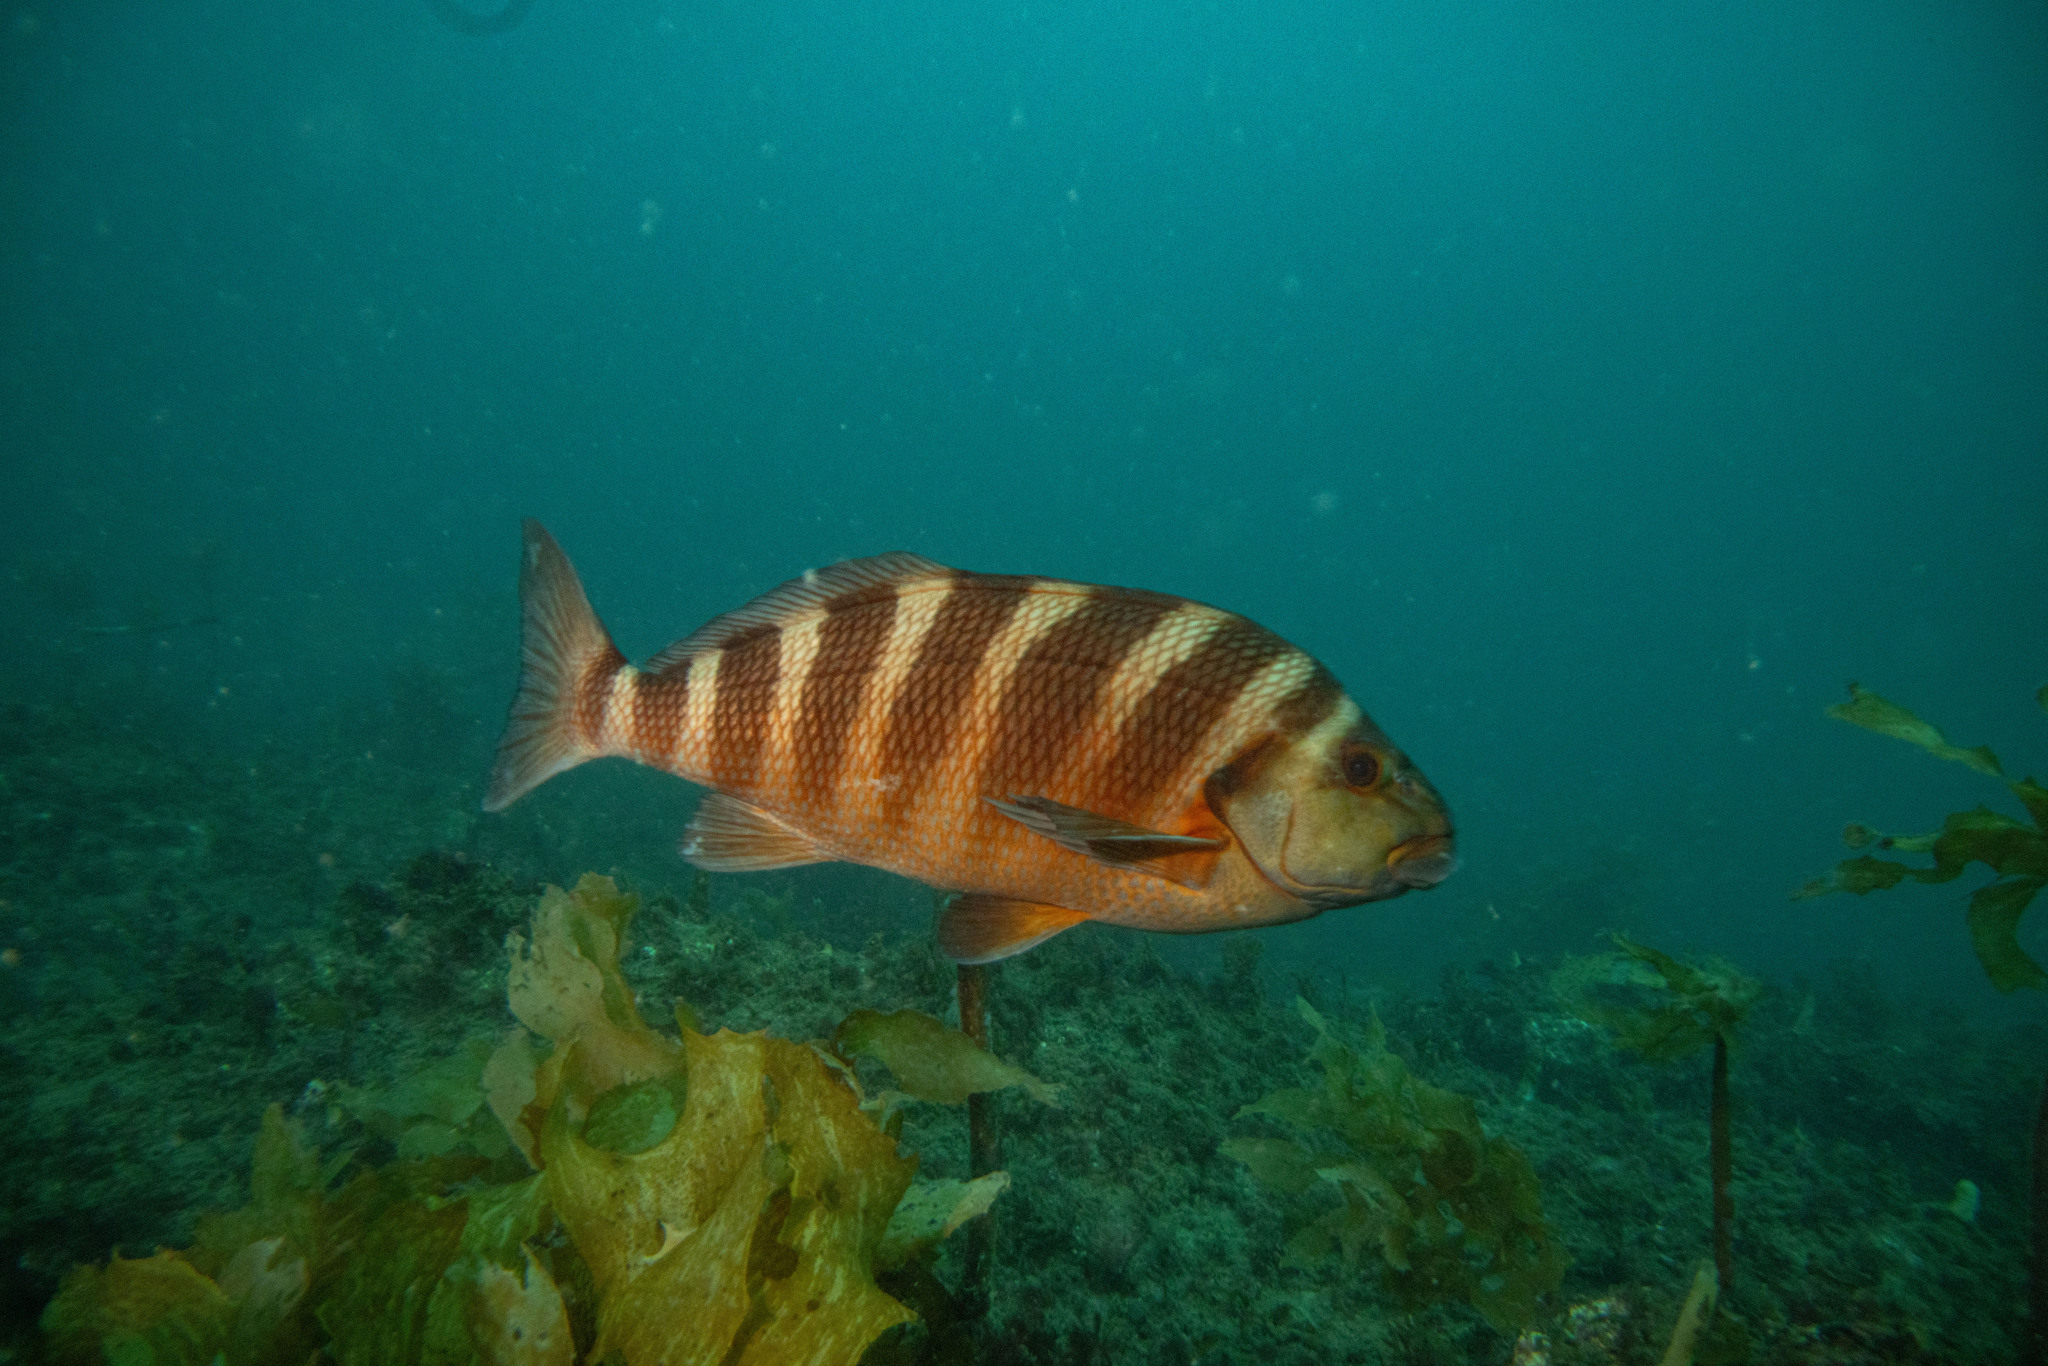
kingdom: Animalia
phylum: Chordata
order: Perciformes
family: Cheilodactylidae
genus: Cheilodactylus
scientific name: Cheilodactylus spectabilis
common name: Red moki
